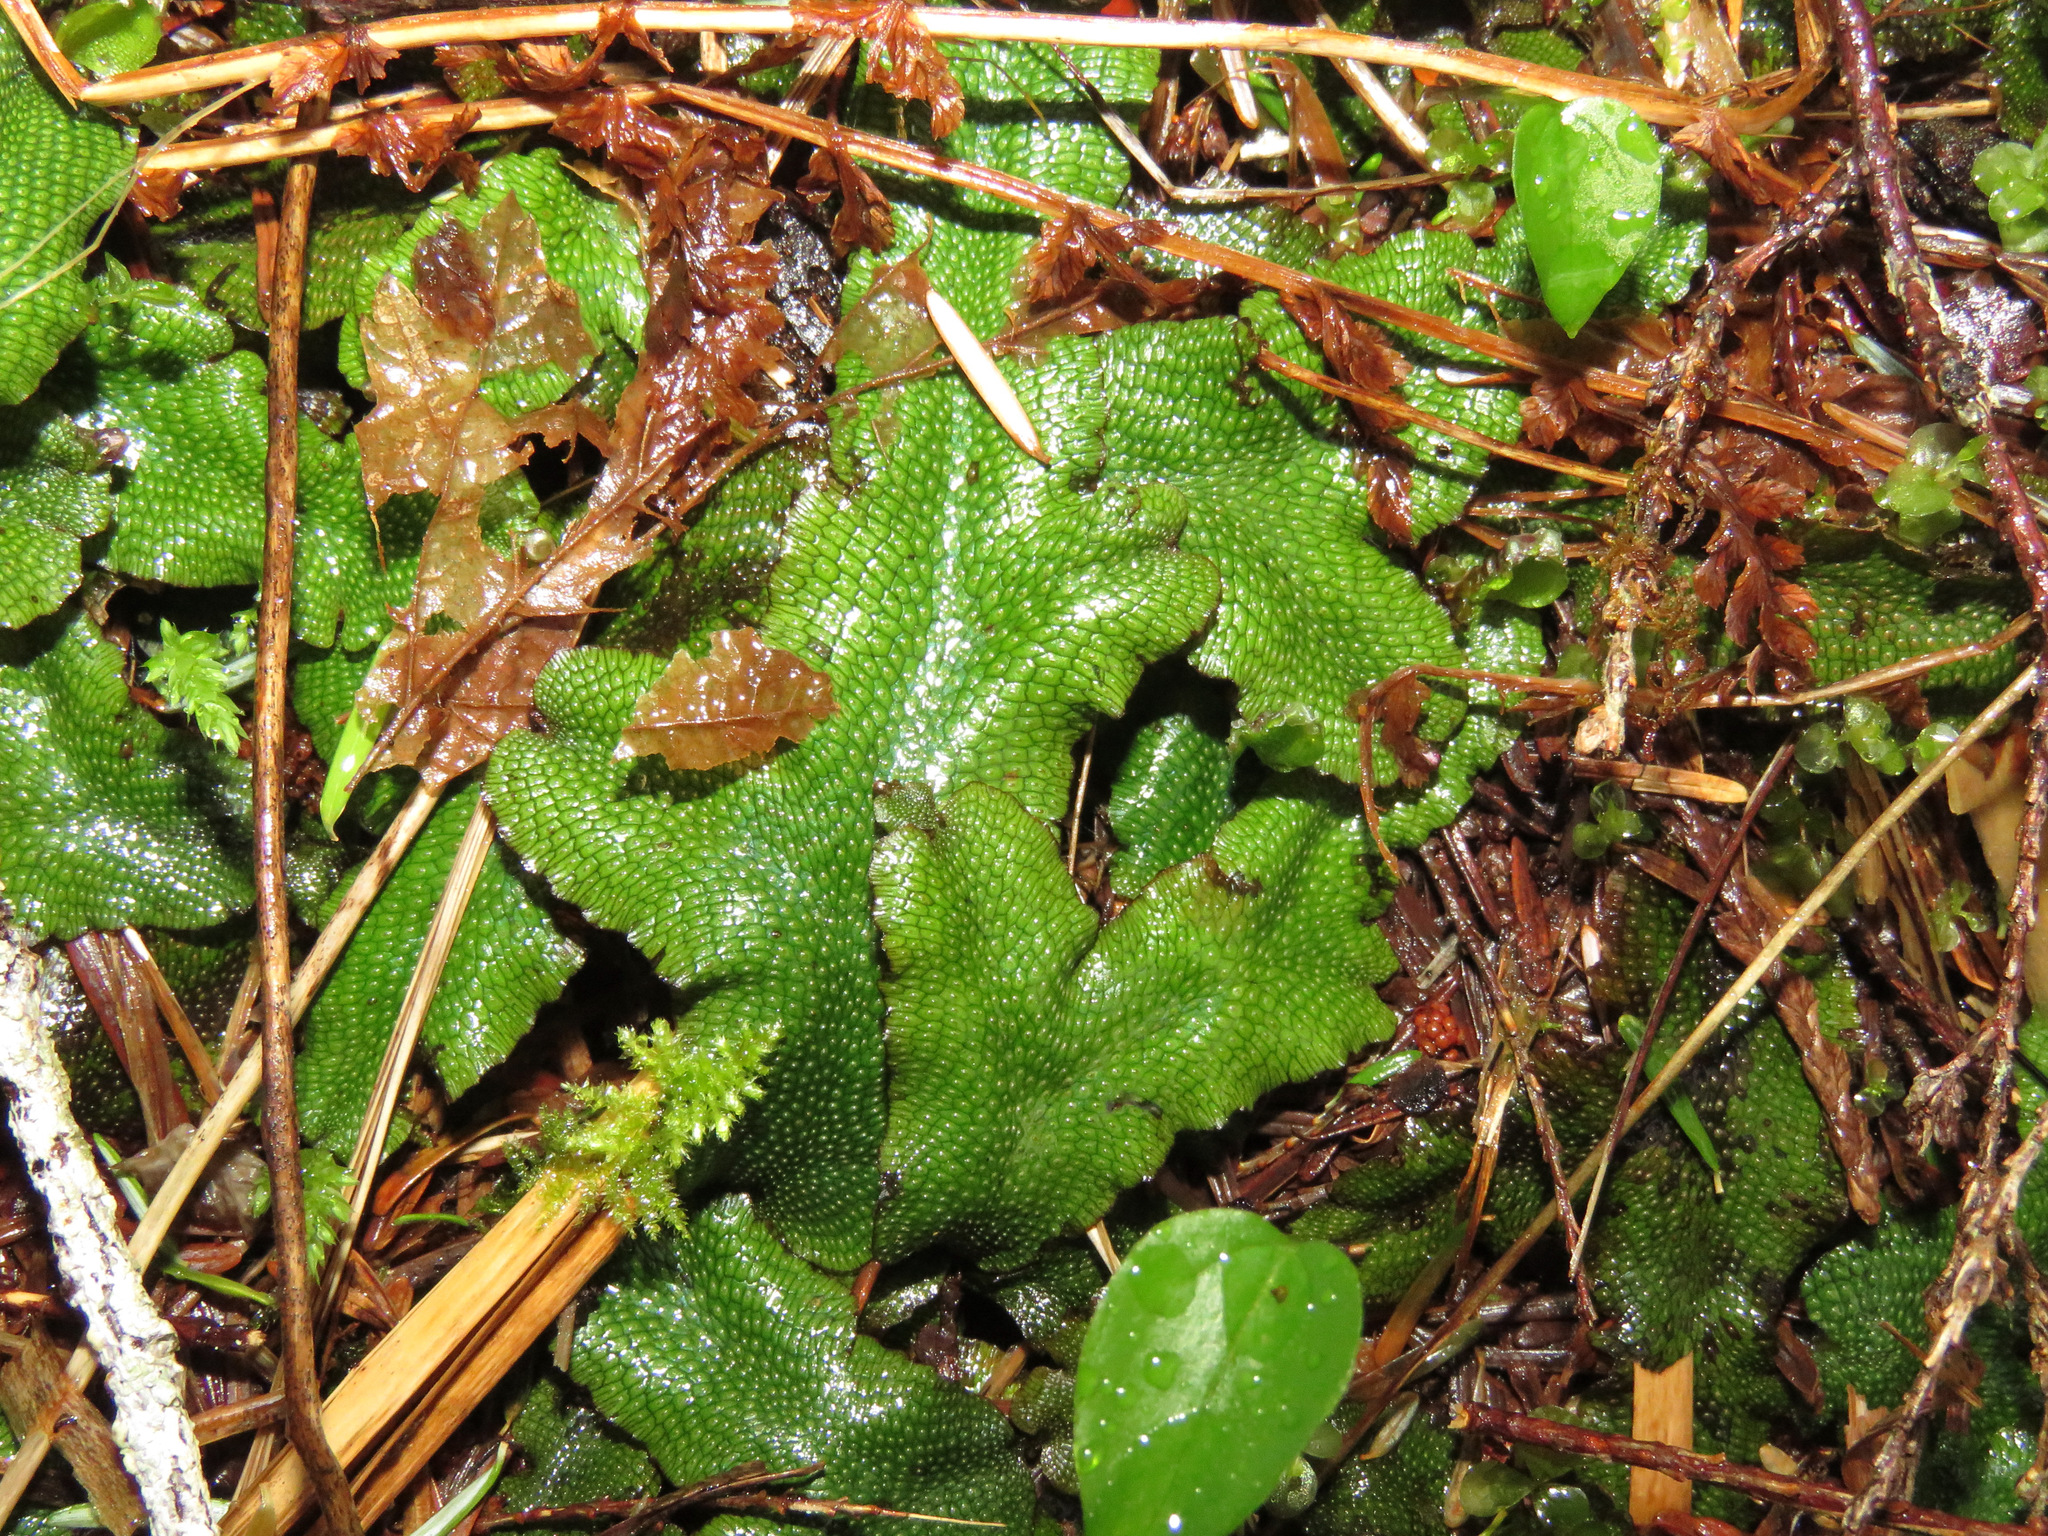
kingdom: Plantae
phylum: Marchantiophyta
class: Marchantiopsida
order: Marchantiales
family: Conocephalaceae
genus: Conocephalum
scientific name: Conocephalum salebrosum
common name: Cat-tongue liverwort
